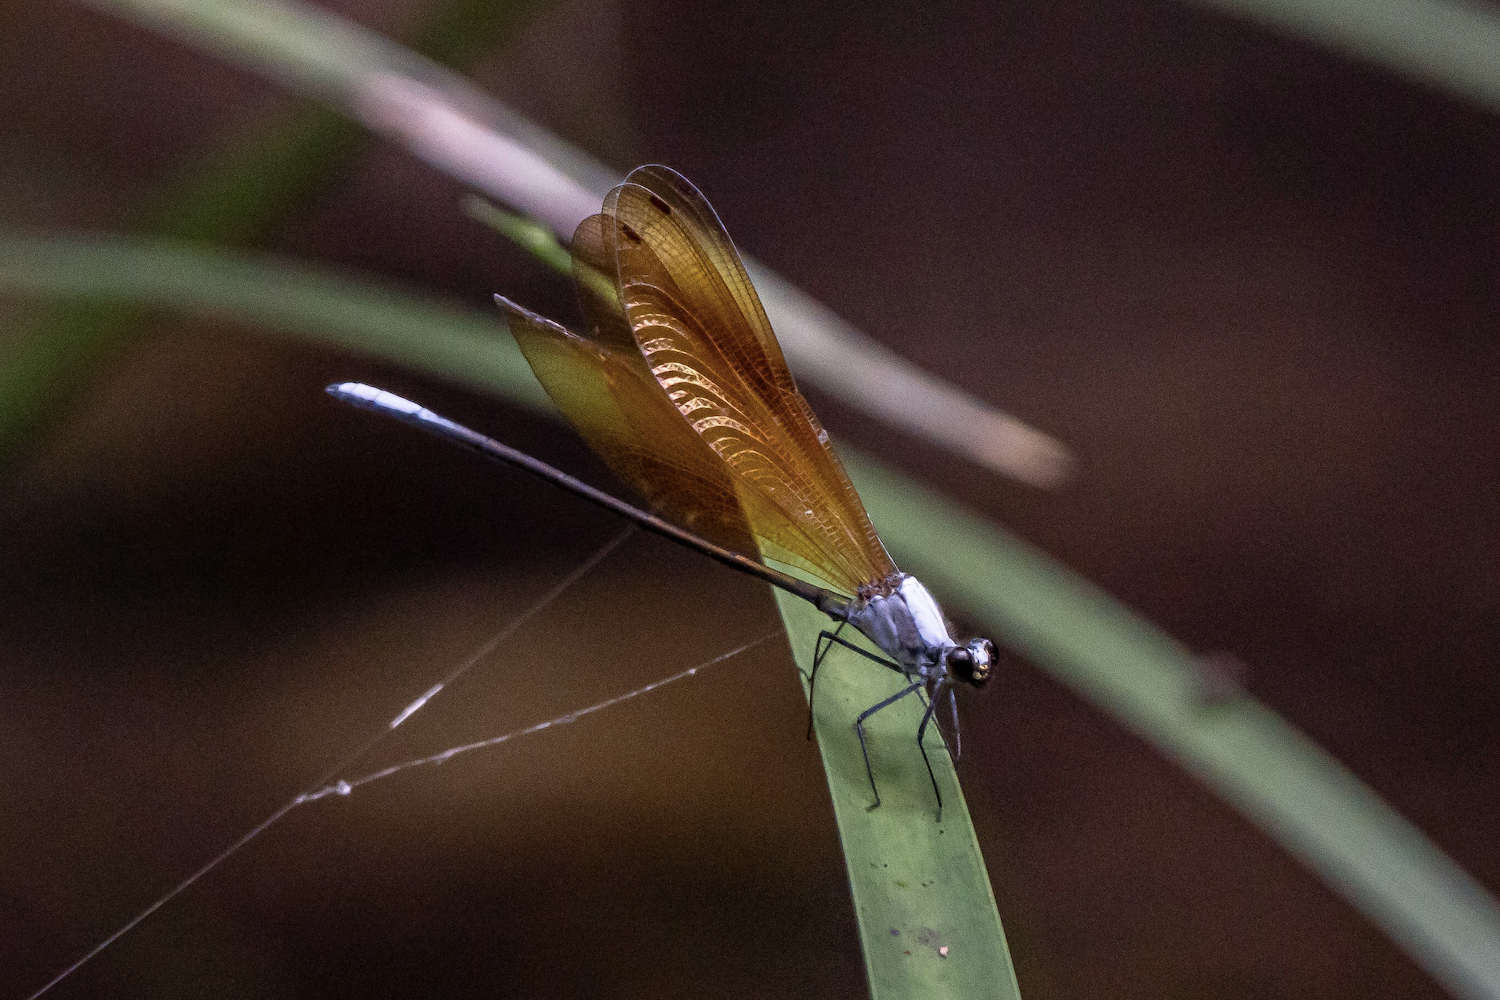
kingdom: Animalia
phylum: Arthropoda
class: Insecta
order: Odonata
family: Calopterygidae
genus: Mnais
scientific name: Mnais mneme
